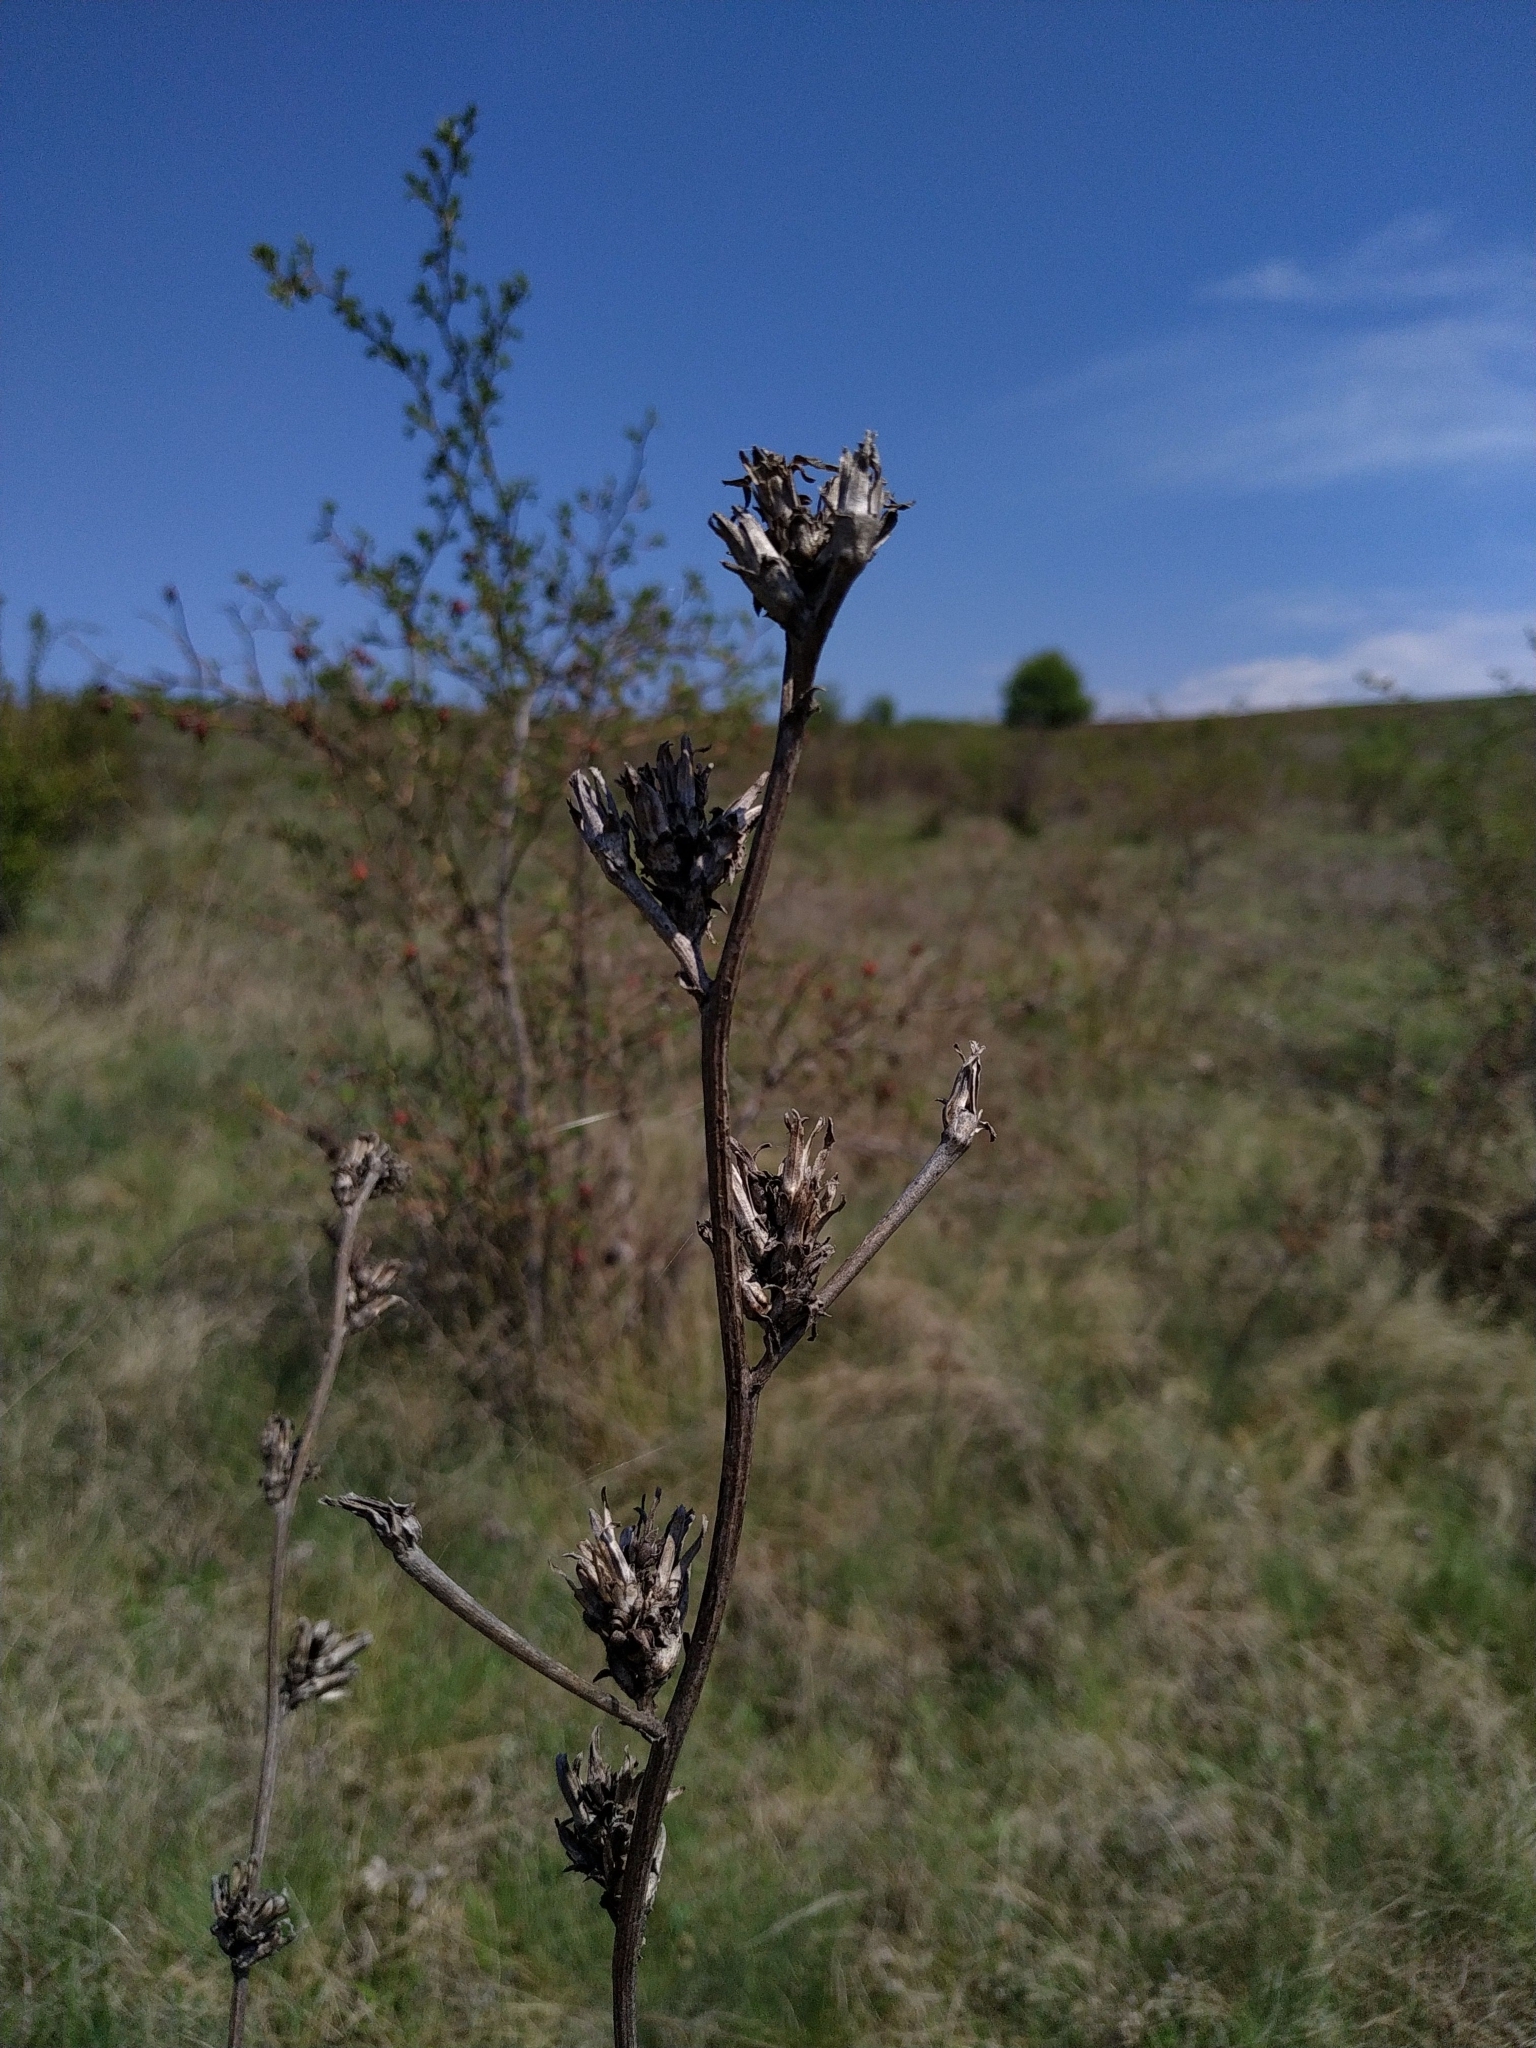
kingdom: Plantae
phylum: Tracheophyta
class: Magnoliopsida
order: Asterales
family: Asteraceae
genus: Cichorium
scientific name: Cichorium intybus
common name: Chicory
